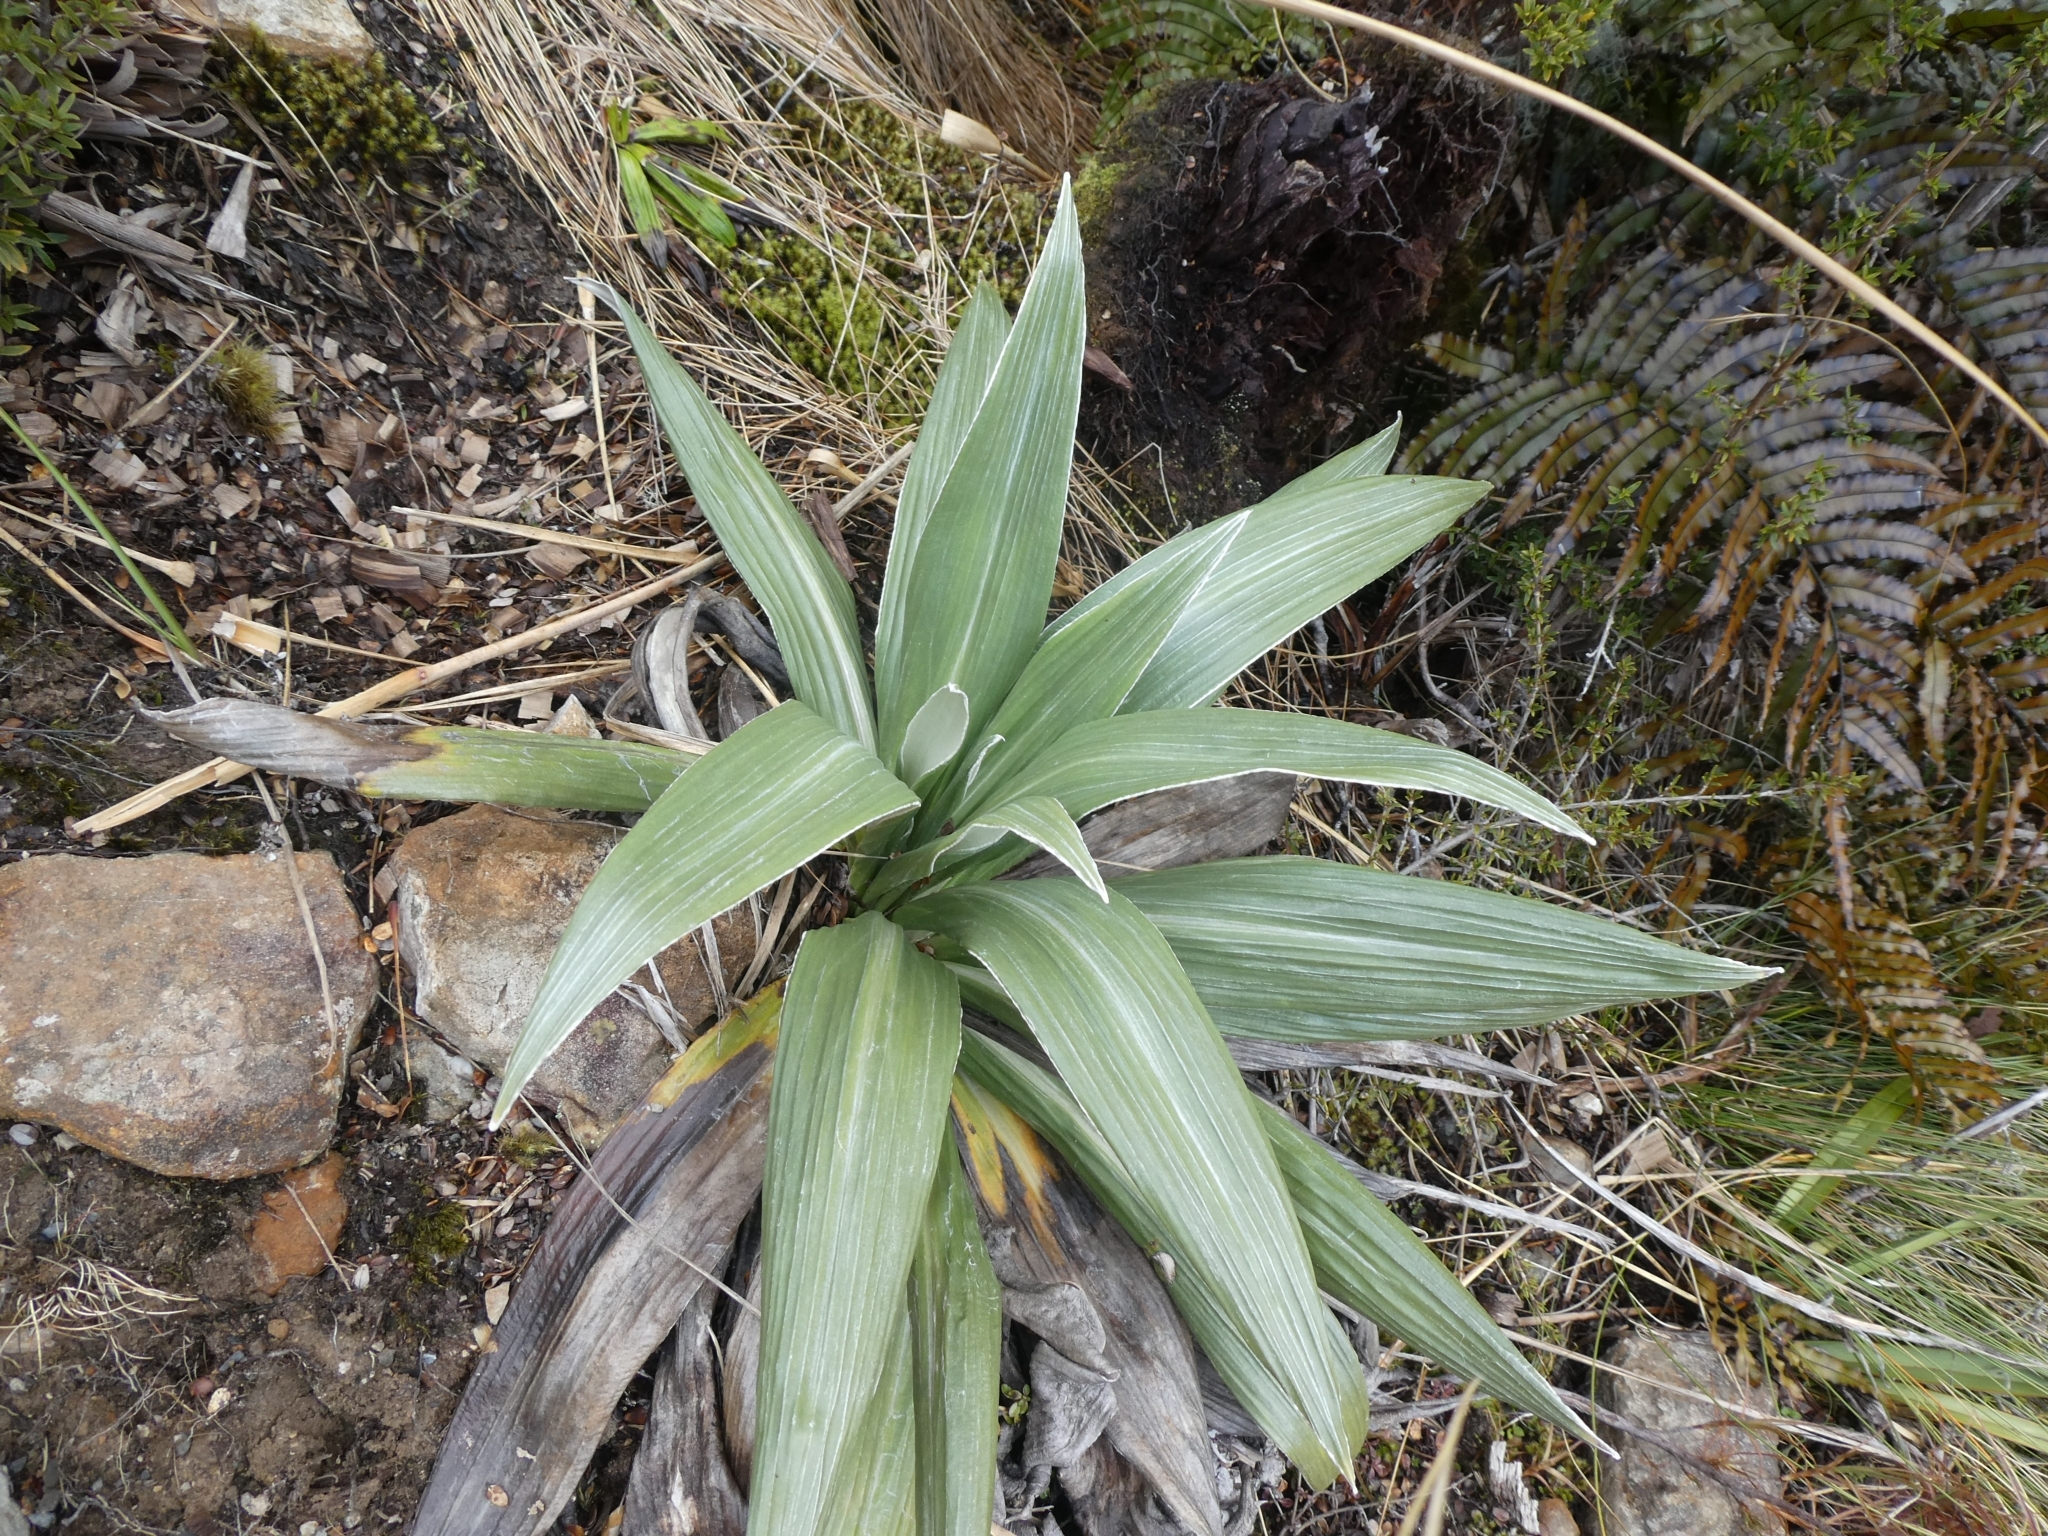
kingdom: Plantae
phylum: Tracheophyta
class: Magnoliopsida
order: Asterales
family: Asteraceae
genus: Celmisia
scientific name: Celmisia semicordata
